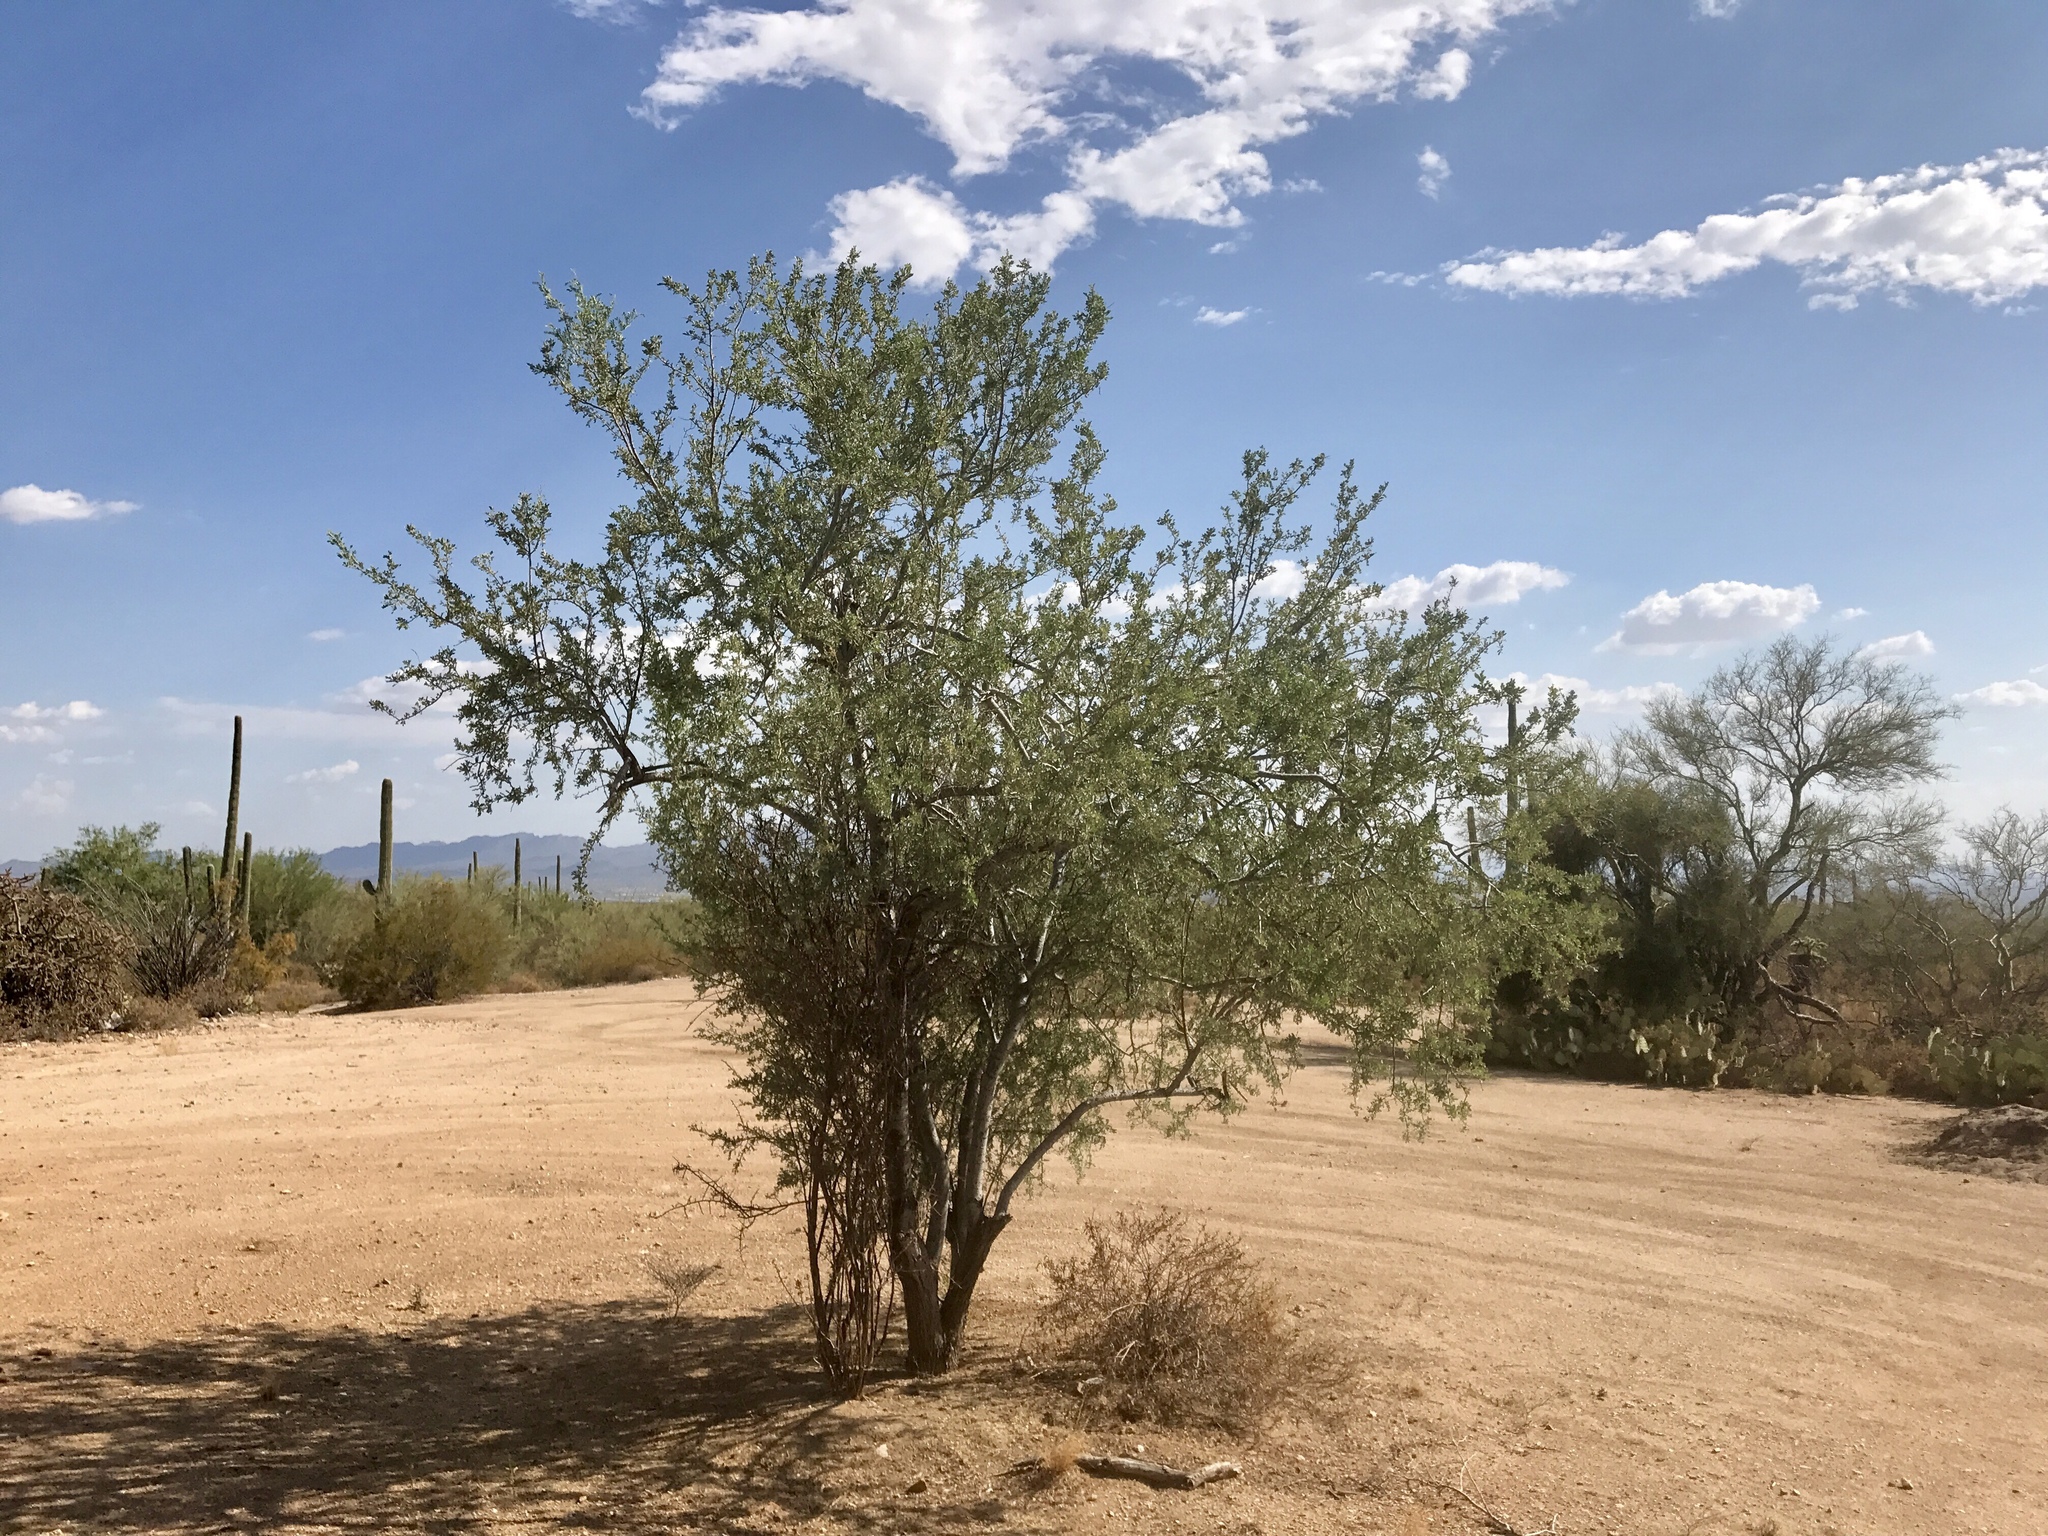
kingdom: Plantae
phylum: Tracheophyta
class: Magnoliopsida
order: Fabales
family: Fabaceae
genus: Olneya
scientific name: Olneya tesota
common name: Desert ironwood
